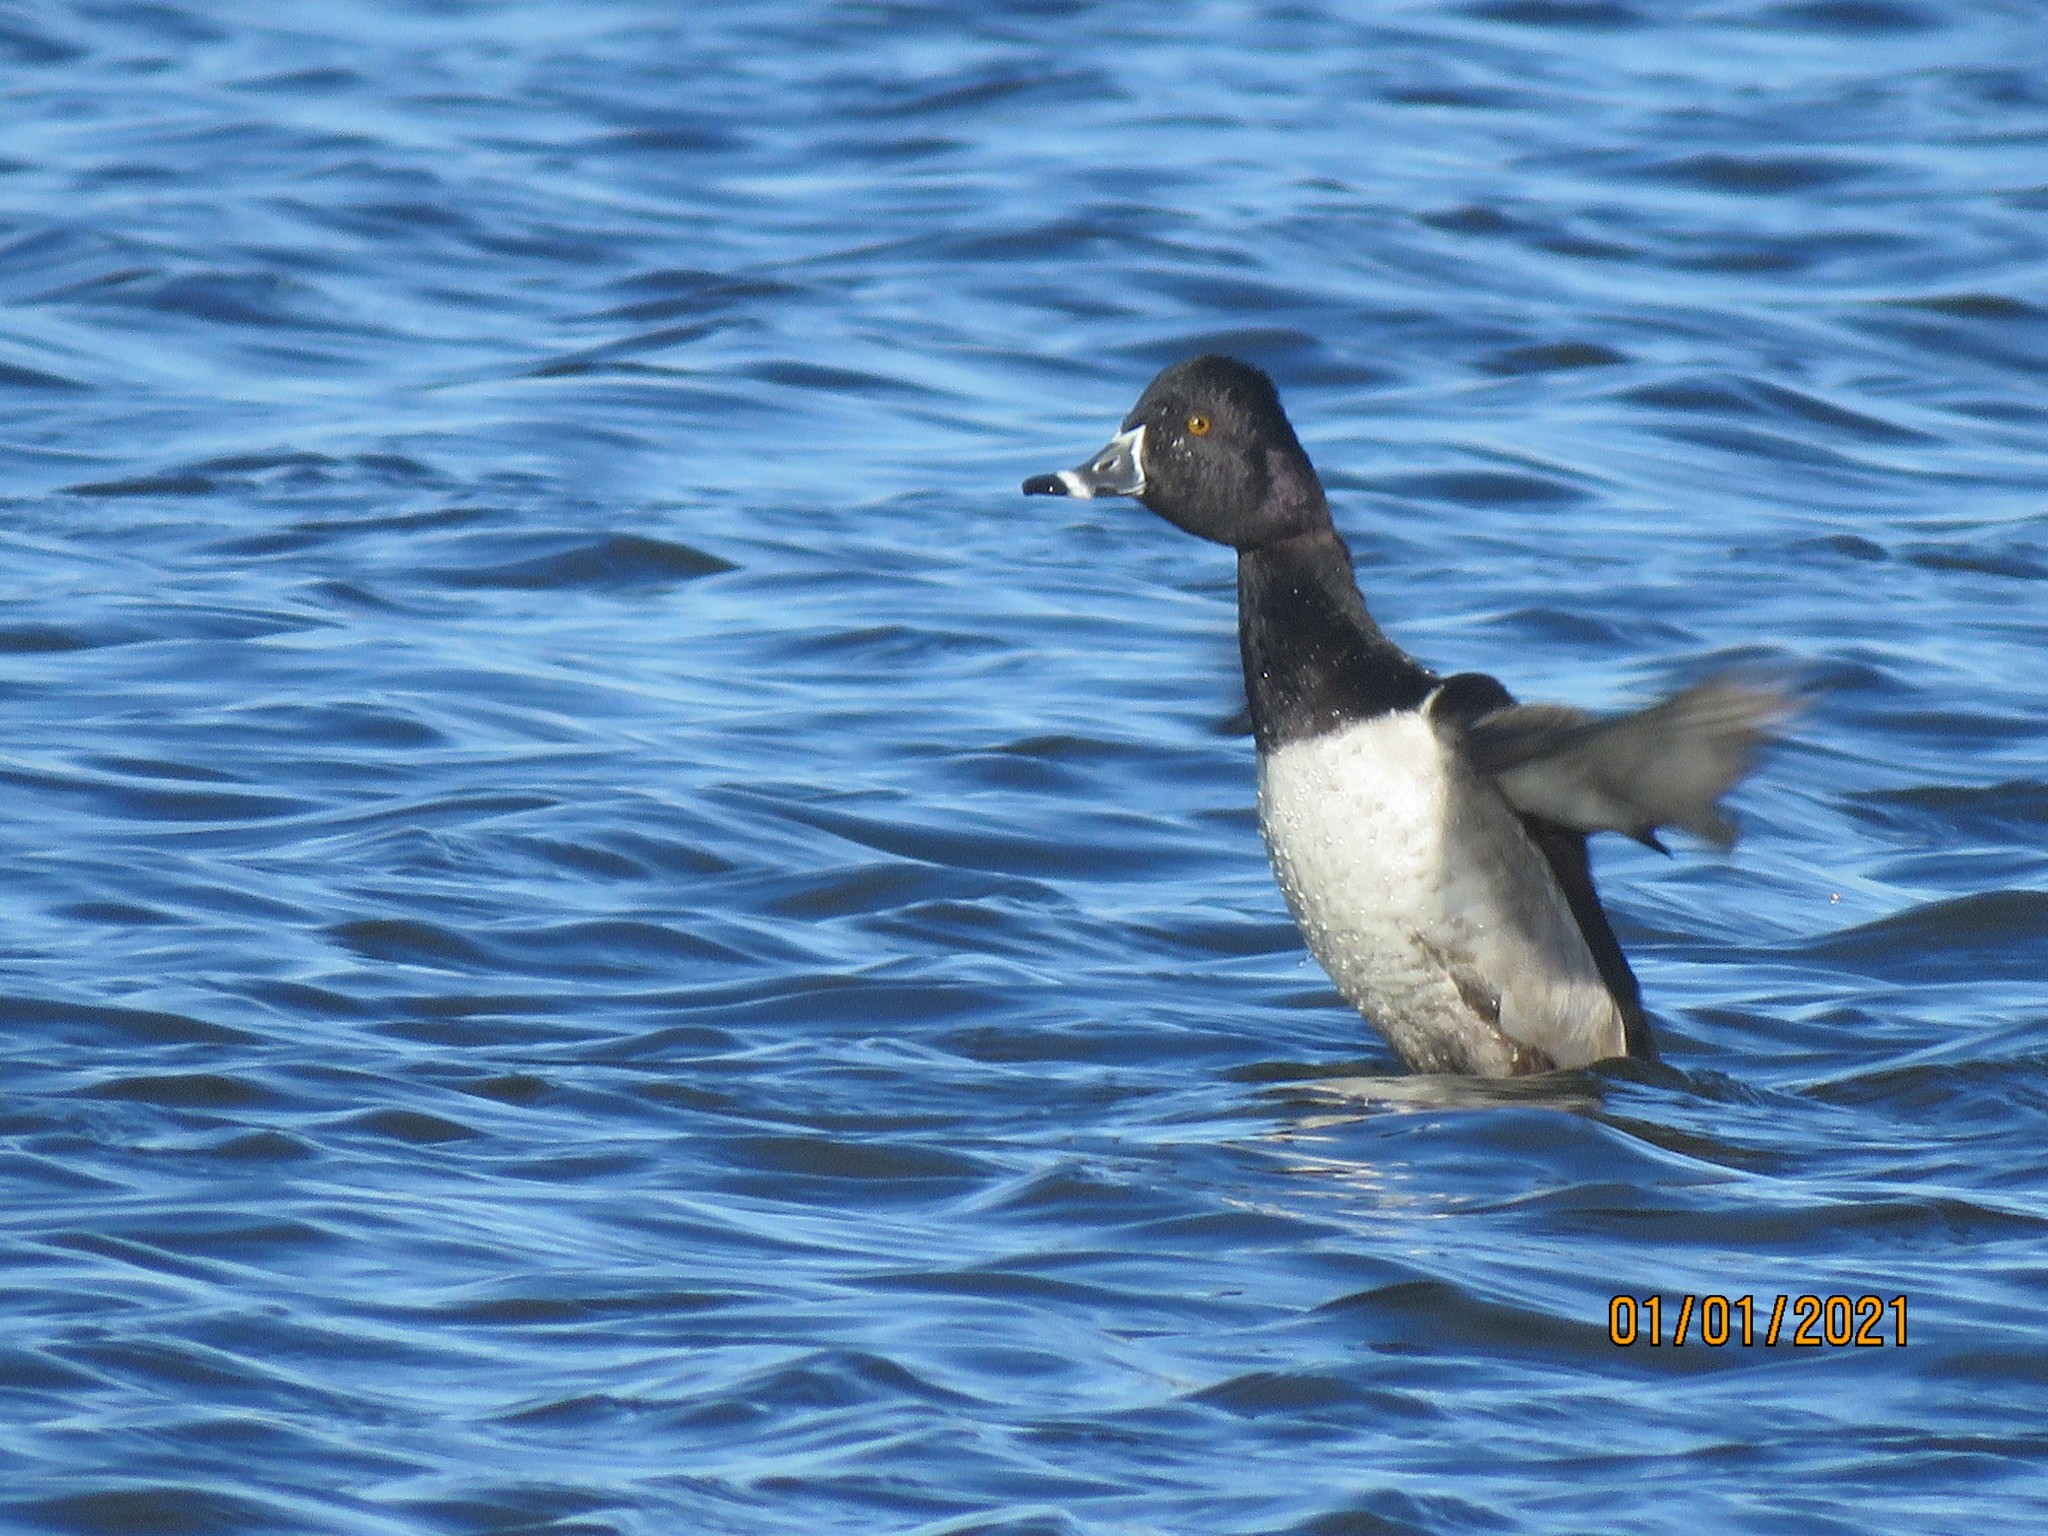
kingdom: Animalia
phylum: Chordata
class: Aves
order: Anseriformes
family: Anatidae
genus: Aythya
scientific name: Aythya collaris
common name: Ring-necked duck
